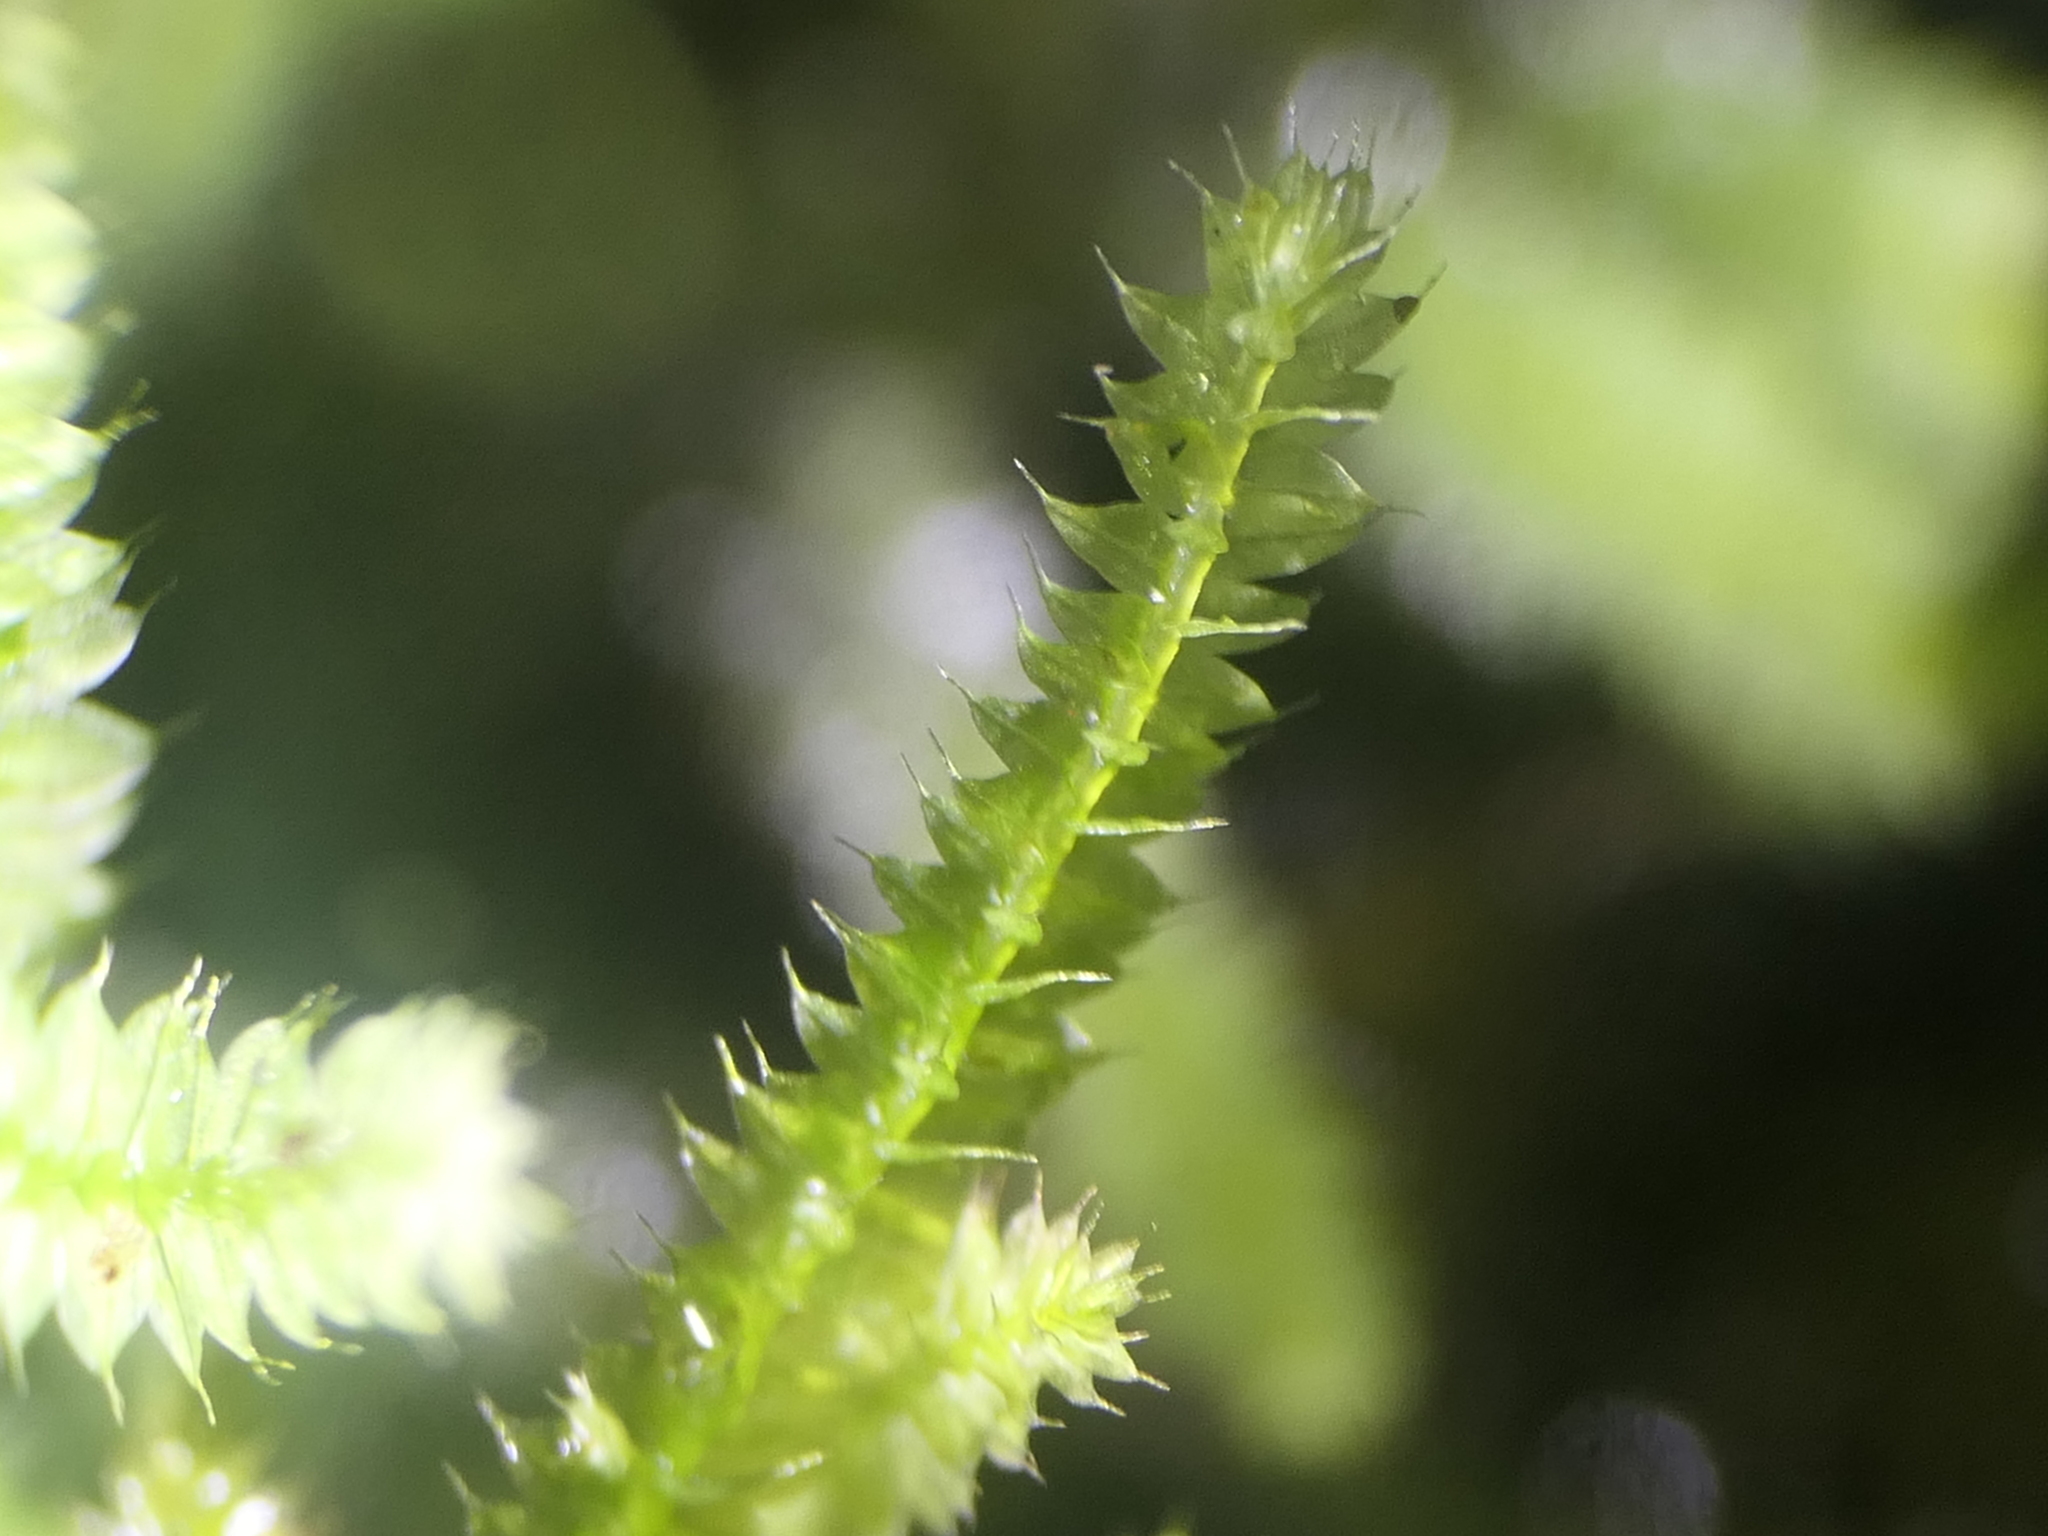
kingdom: Plantae
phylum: Bryophyta
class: Bryopsida
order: Hypnodendrales
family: Racopilaceae
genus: Racopilum
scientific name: Racopilum cuspidigerum
